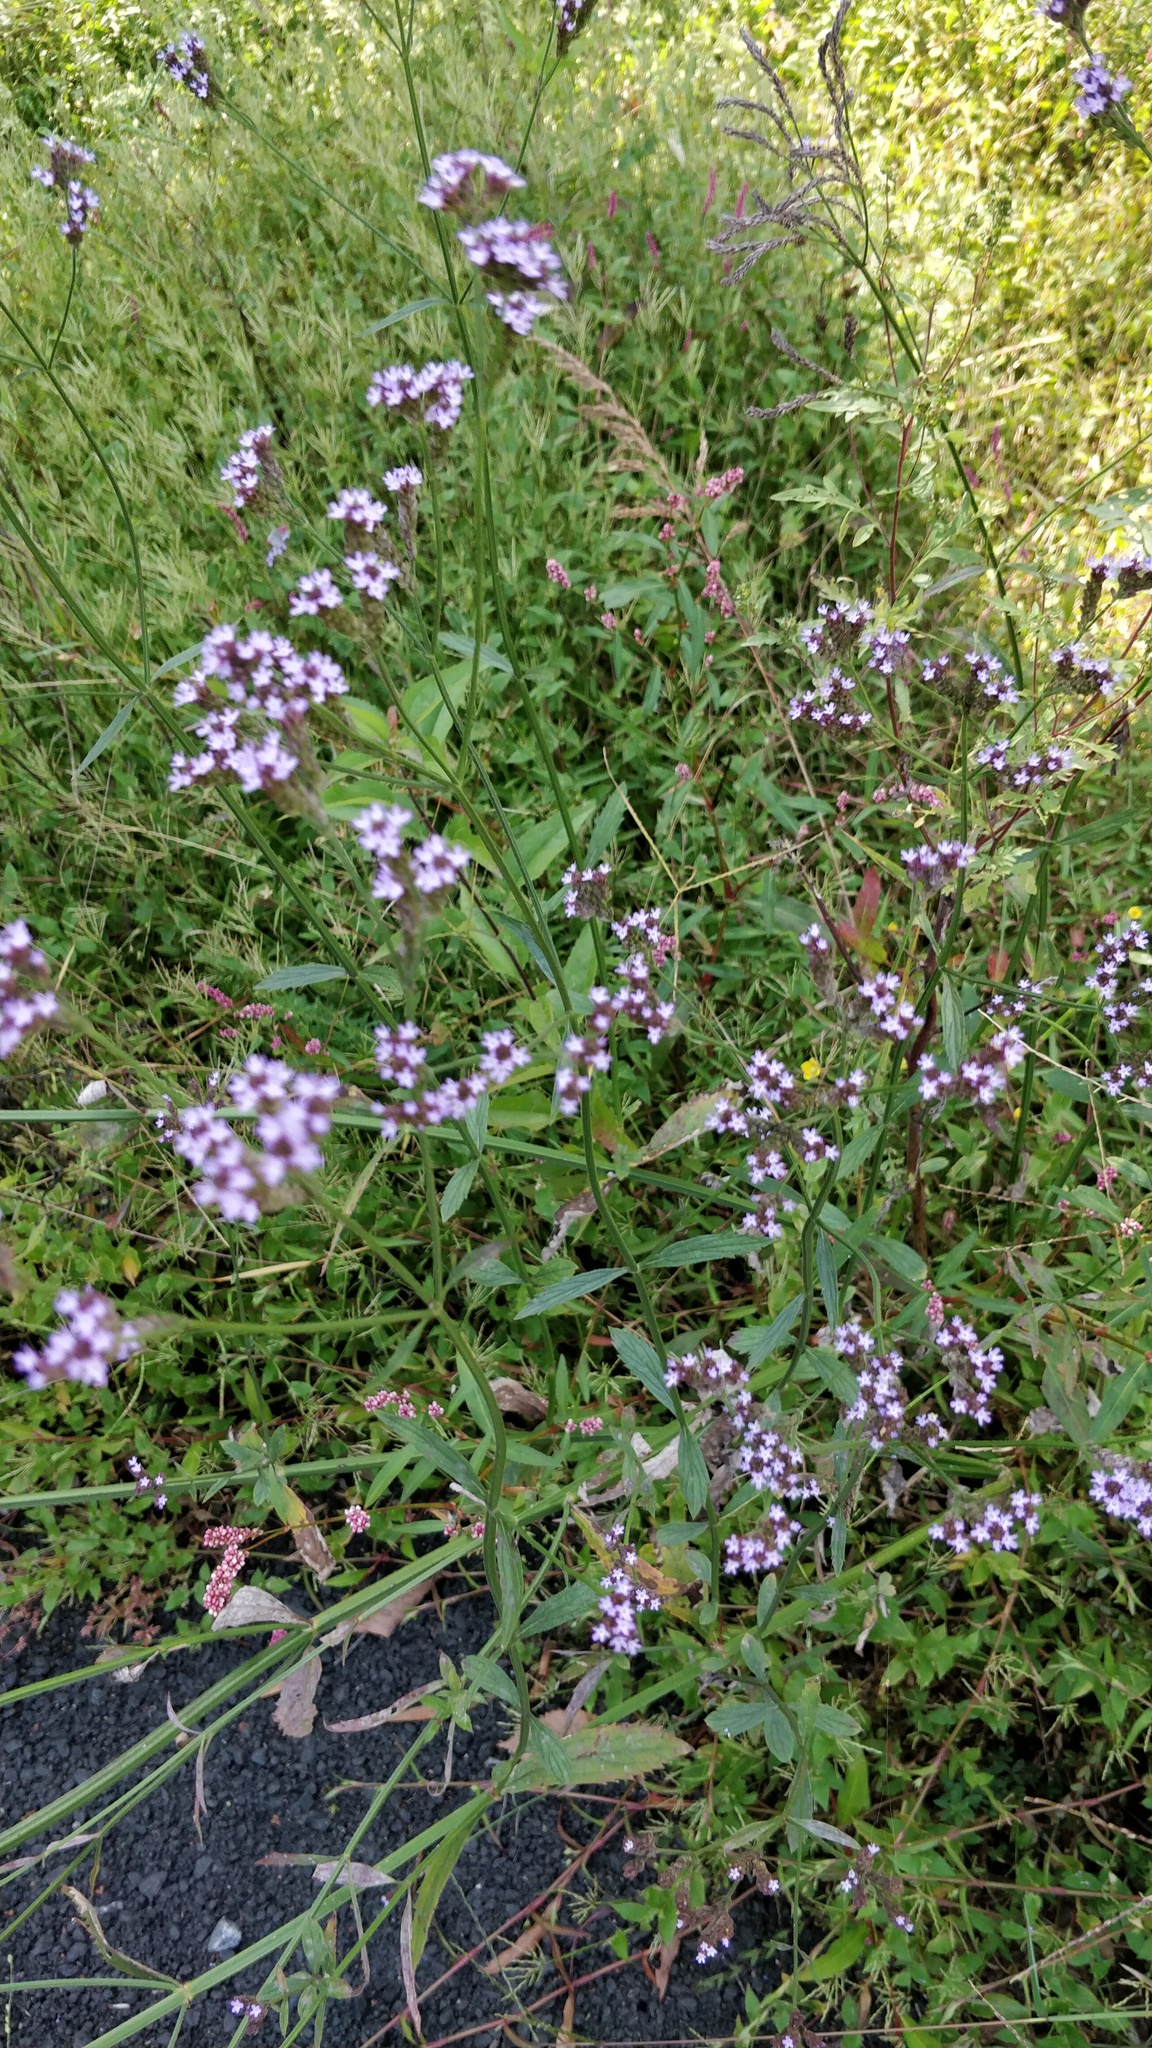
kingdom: Plantae
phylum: Tracheophyta
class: Magnoliopsida
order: Lamiales
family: Verbenaceae
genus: Verbena
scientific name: Verbena brasiliensis
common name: Brazilian vervain
